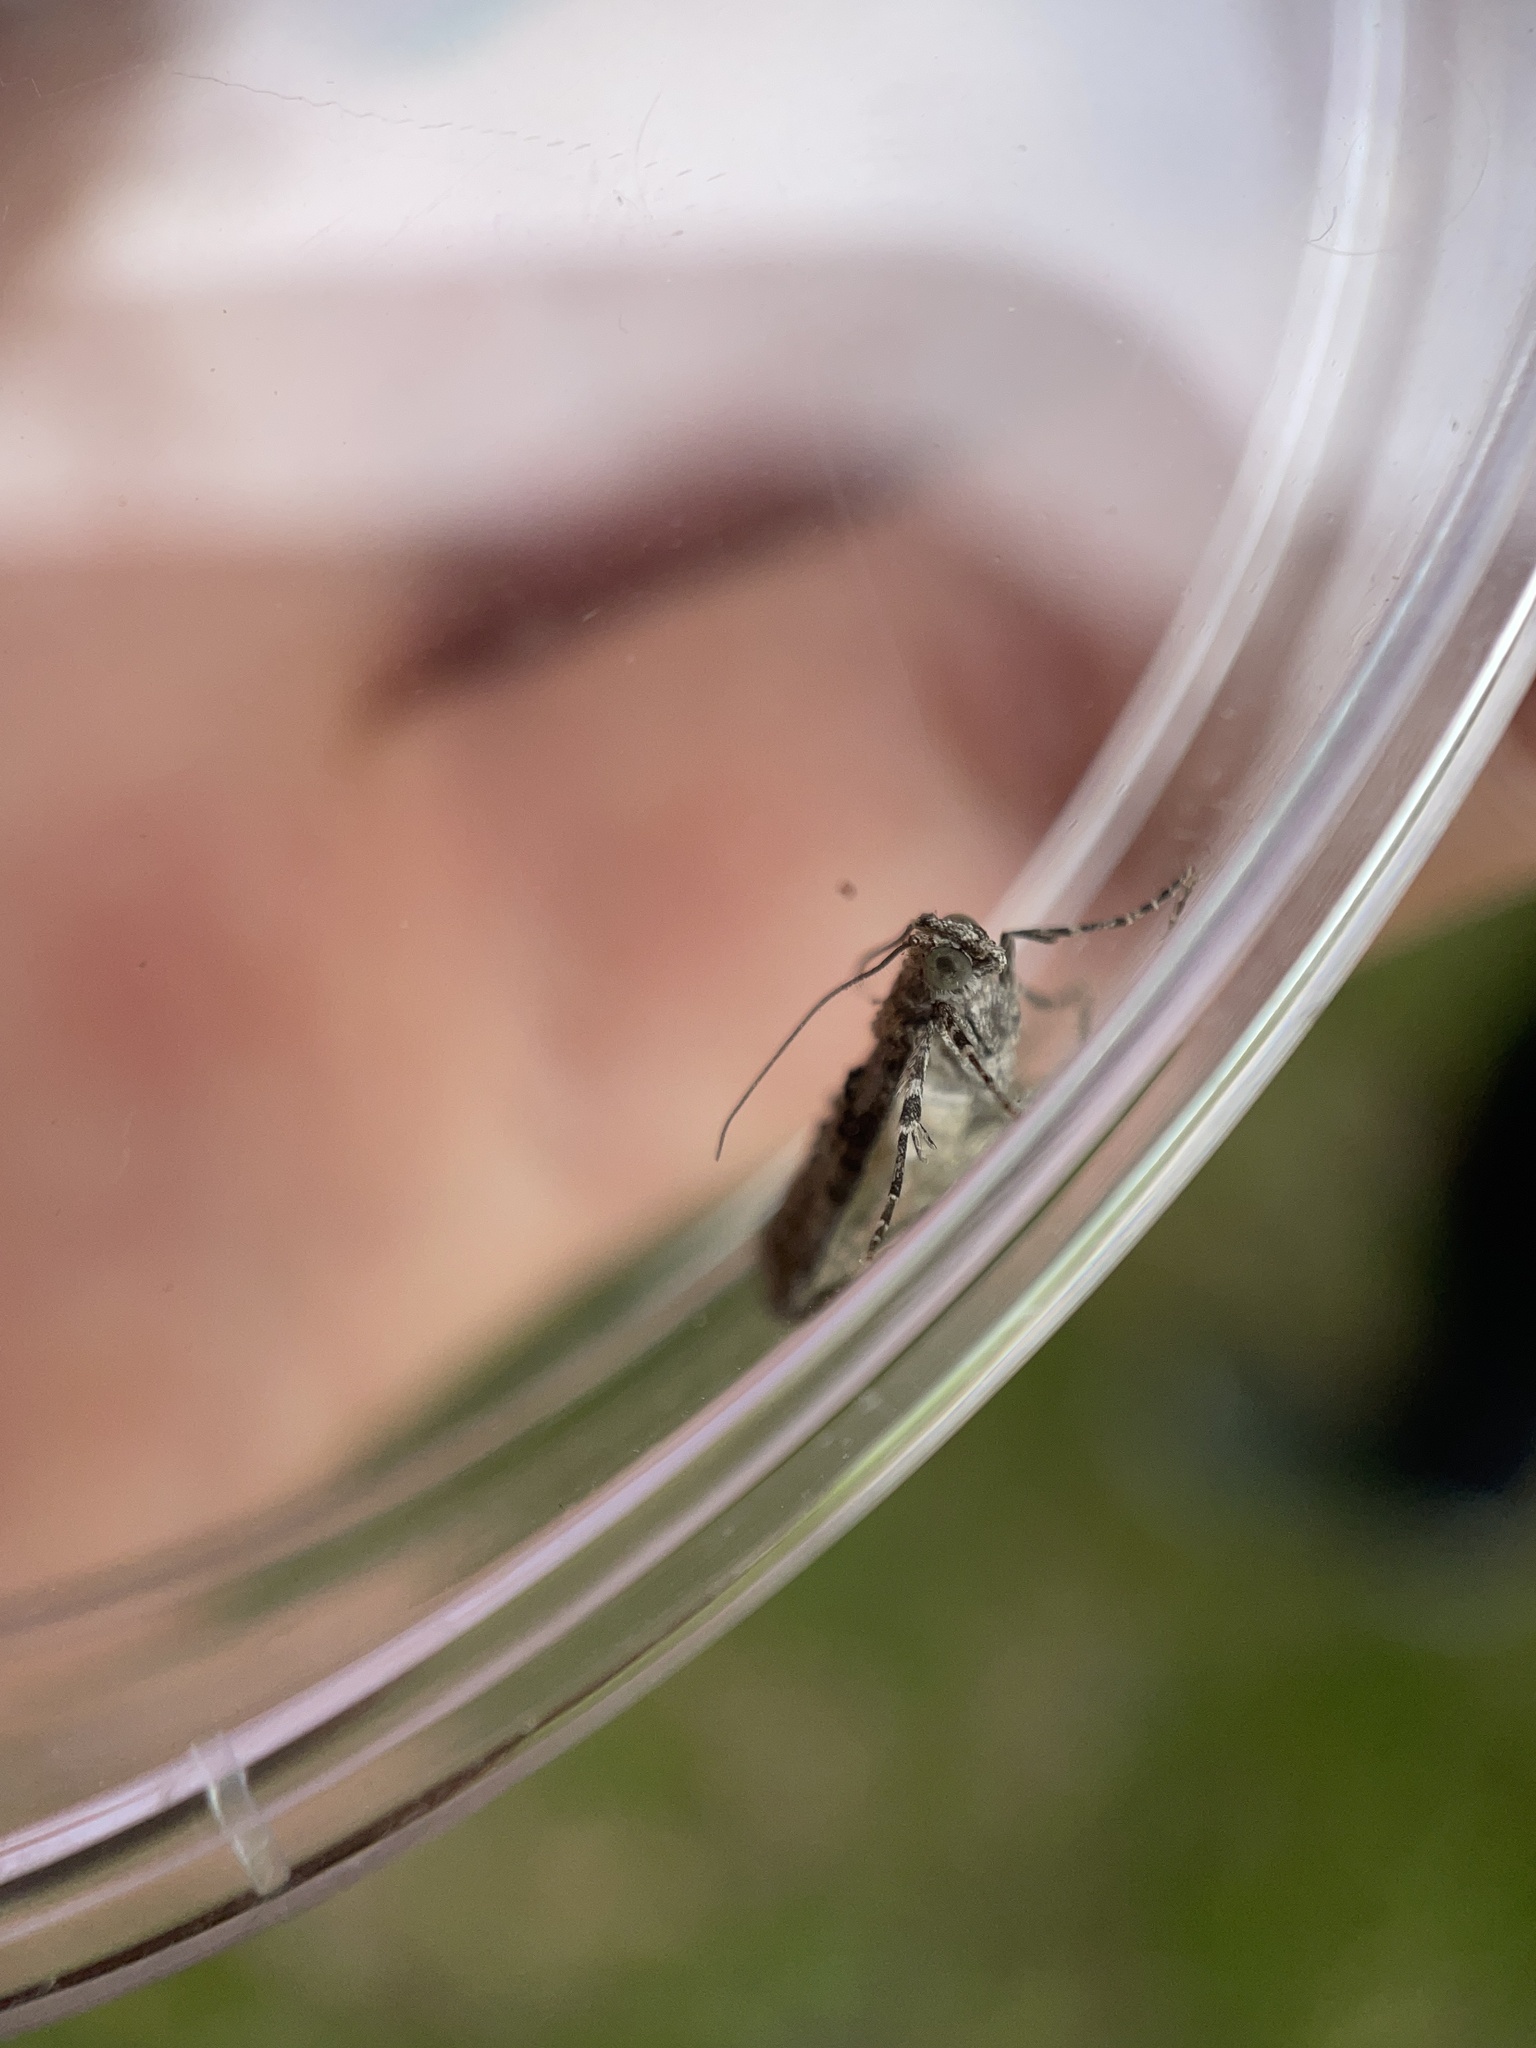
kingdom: Animalia
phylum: Arthropoda
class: Insecta
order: Lepidoptera
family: Pyralidae
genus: Pococera
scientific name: Pococera asperatella
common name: Maple webworm moth
